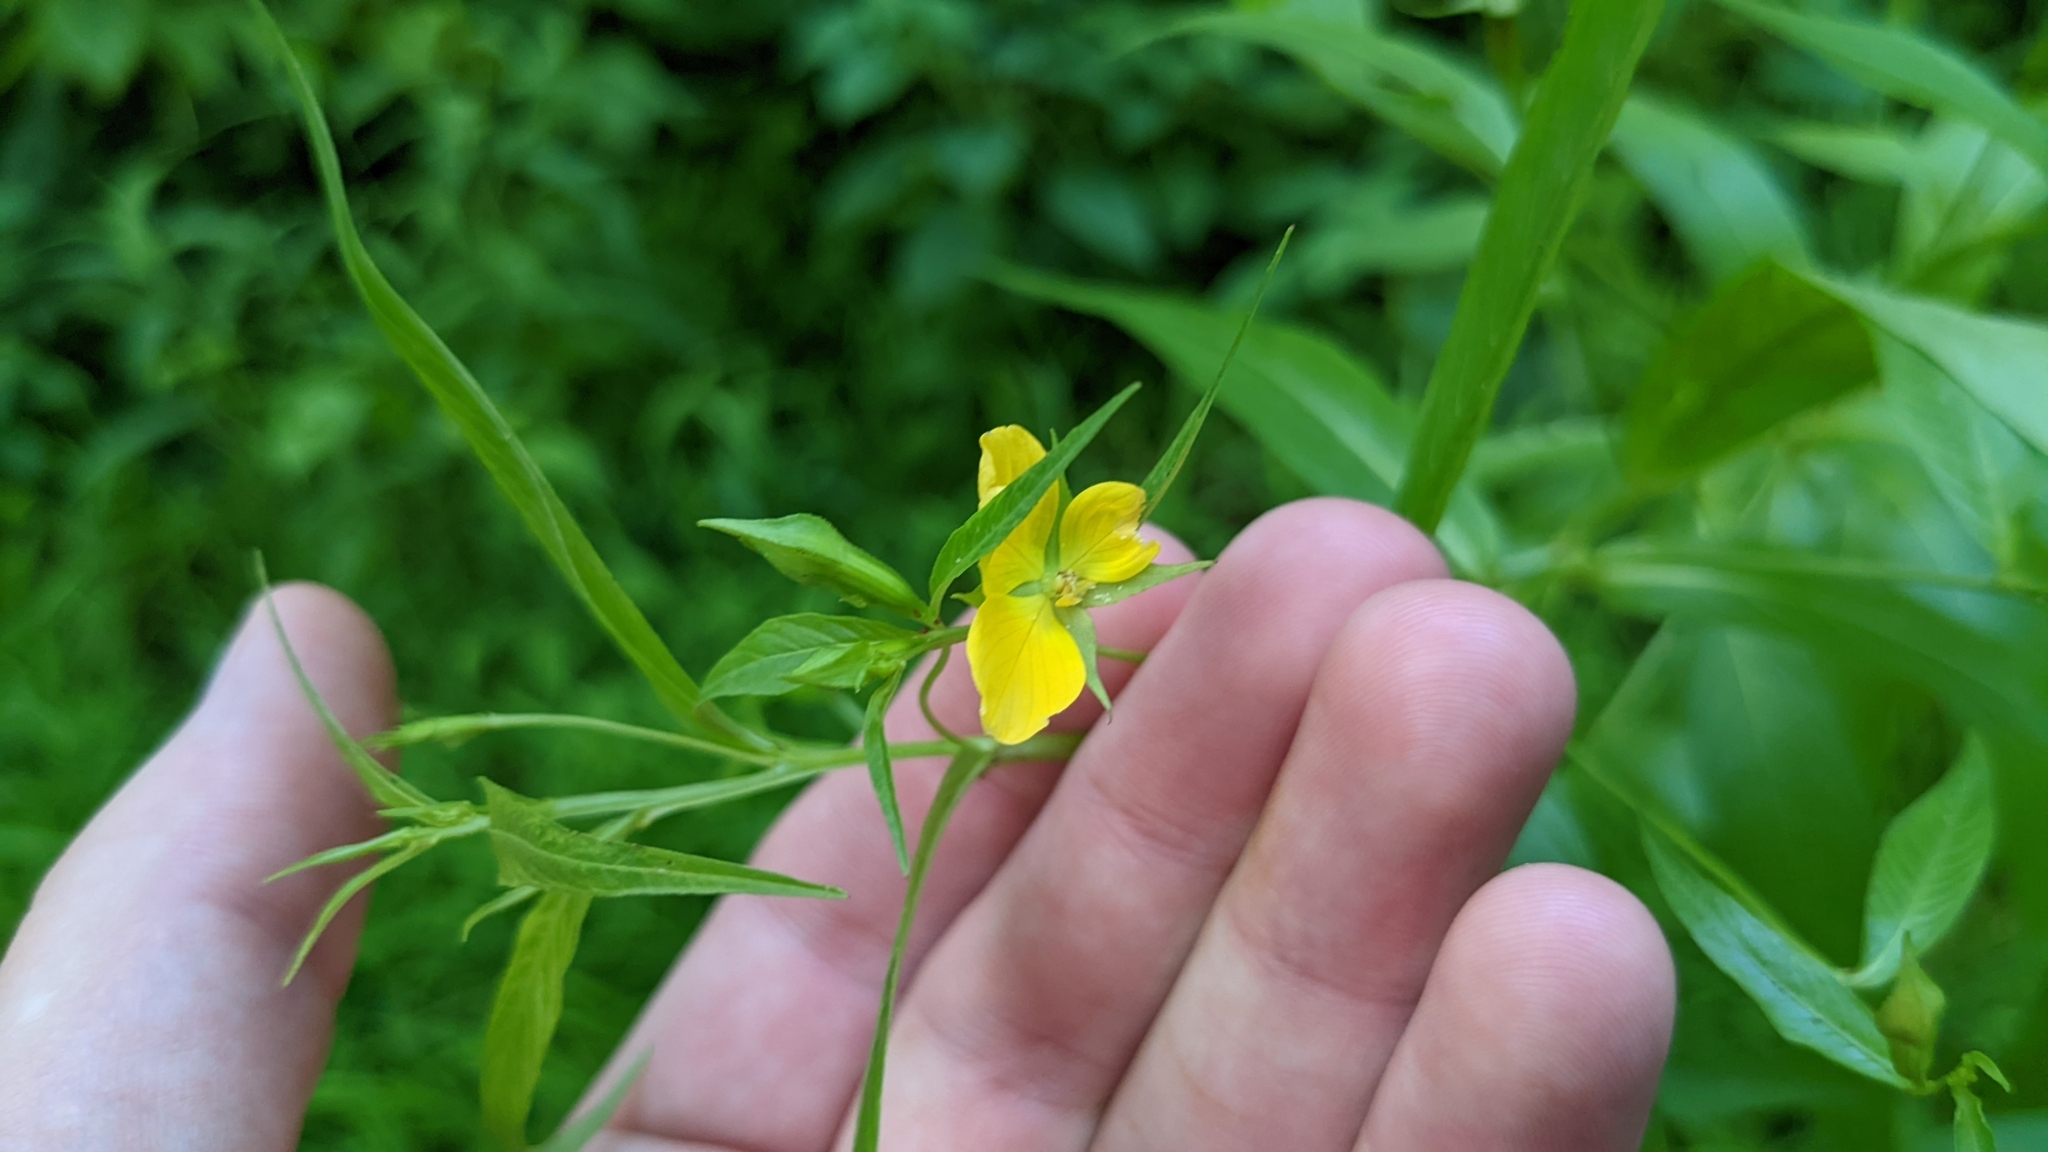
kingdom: Plantae
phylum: Tracheophyta
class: Magnoliopsida
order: Myrtales
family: Onagraceae
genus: Ludwigia
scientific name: Ludwigia decurrens
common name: Winged water-primrose
